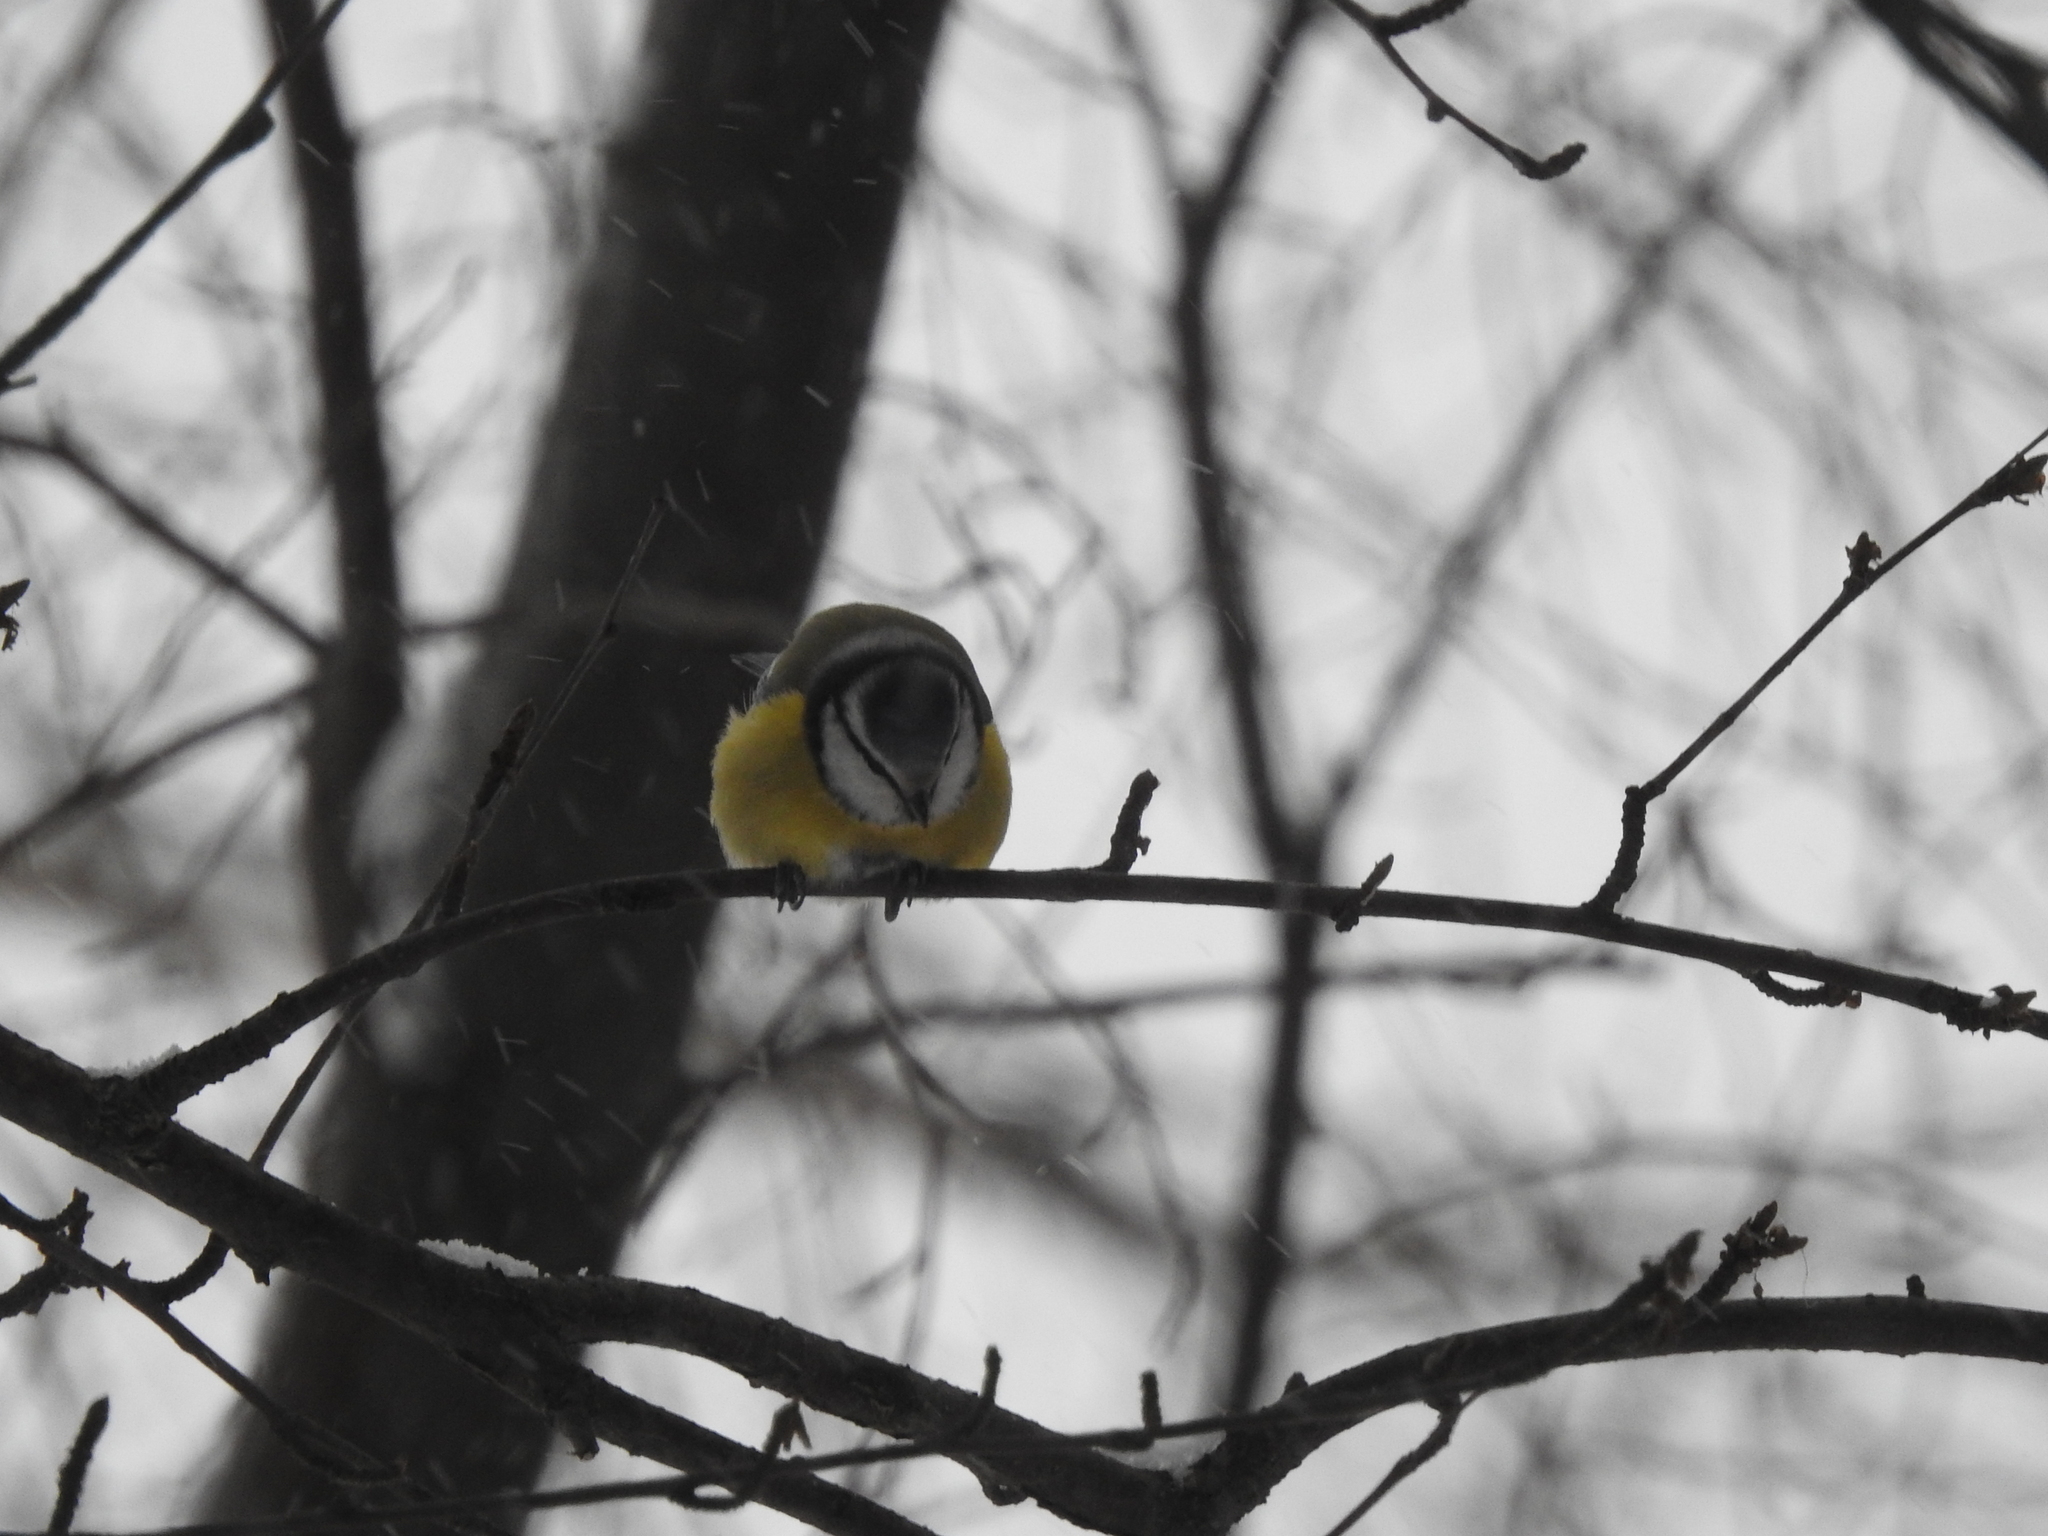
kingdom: Animalia
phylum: Chordata
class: Aves
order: Passeriformes
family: Paridae
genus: Cyanistes
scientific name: Cyanistes caeruleus
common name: Eurasian blue tit
